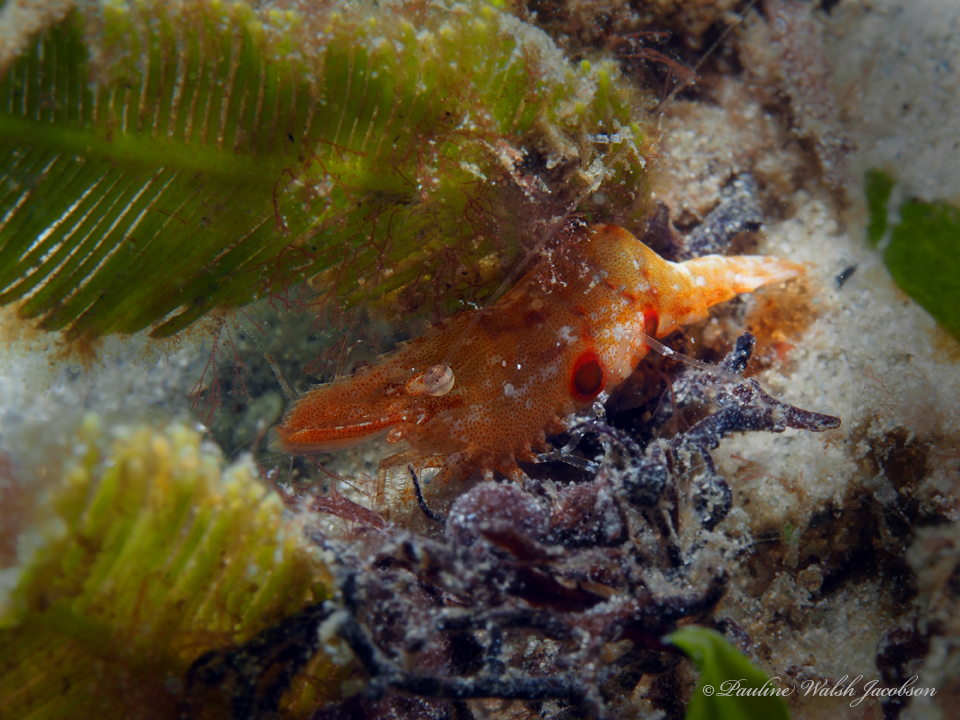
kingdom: Animalia
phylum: Arthropoda
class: Malacostraca
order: Decapoda
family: Palaemonidae
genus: Leander
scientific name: Leander tenuicornis
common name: Brown glass shrimp
